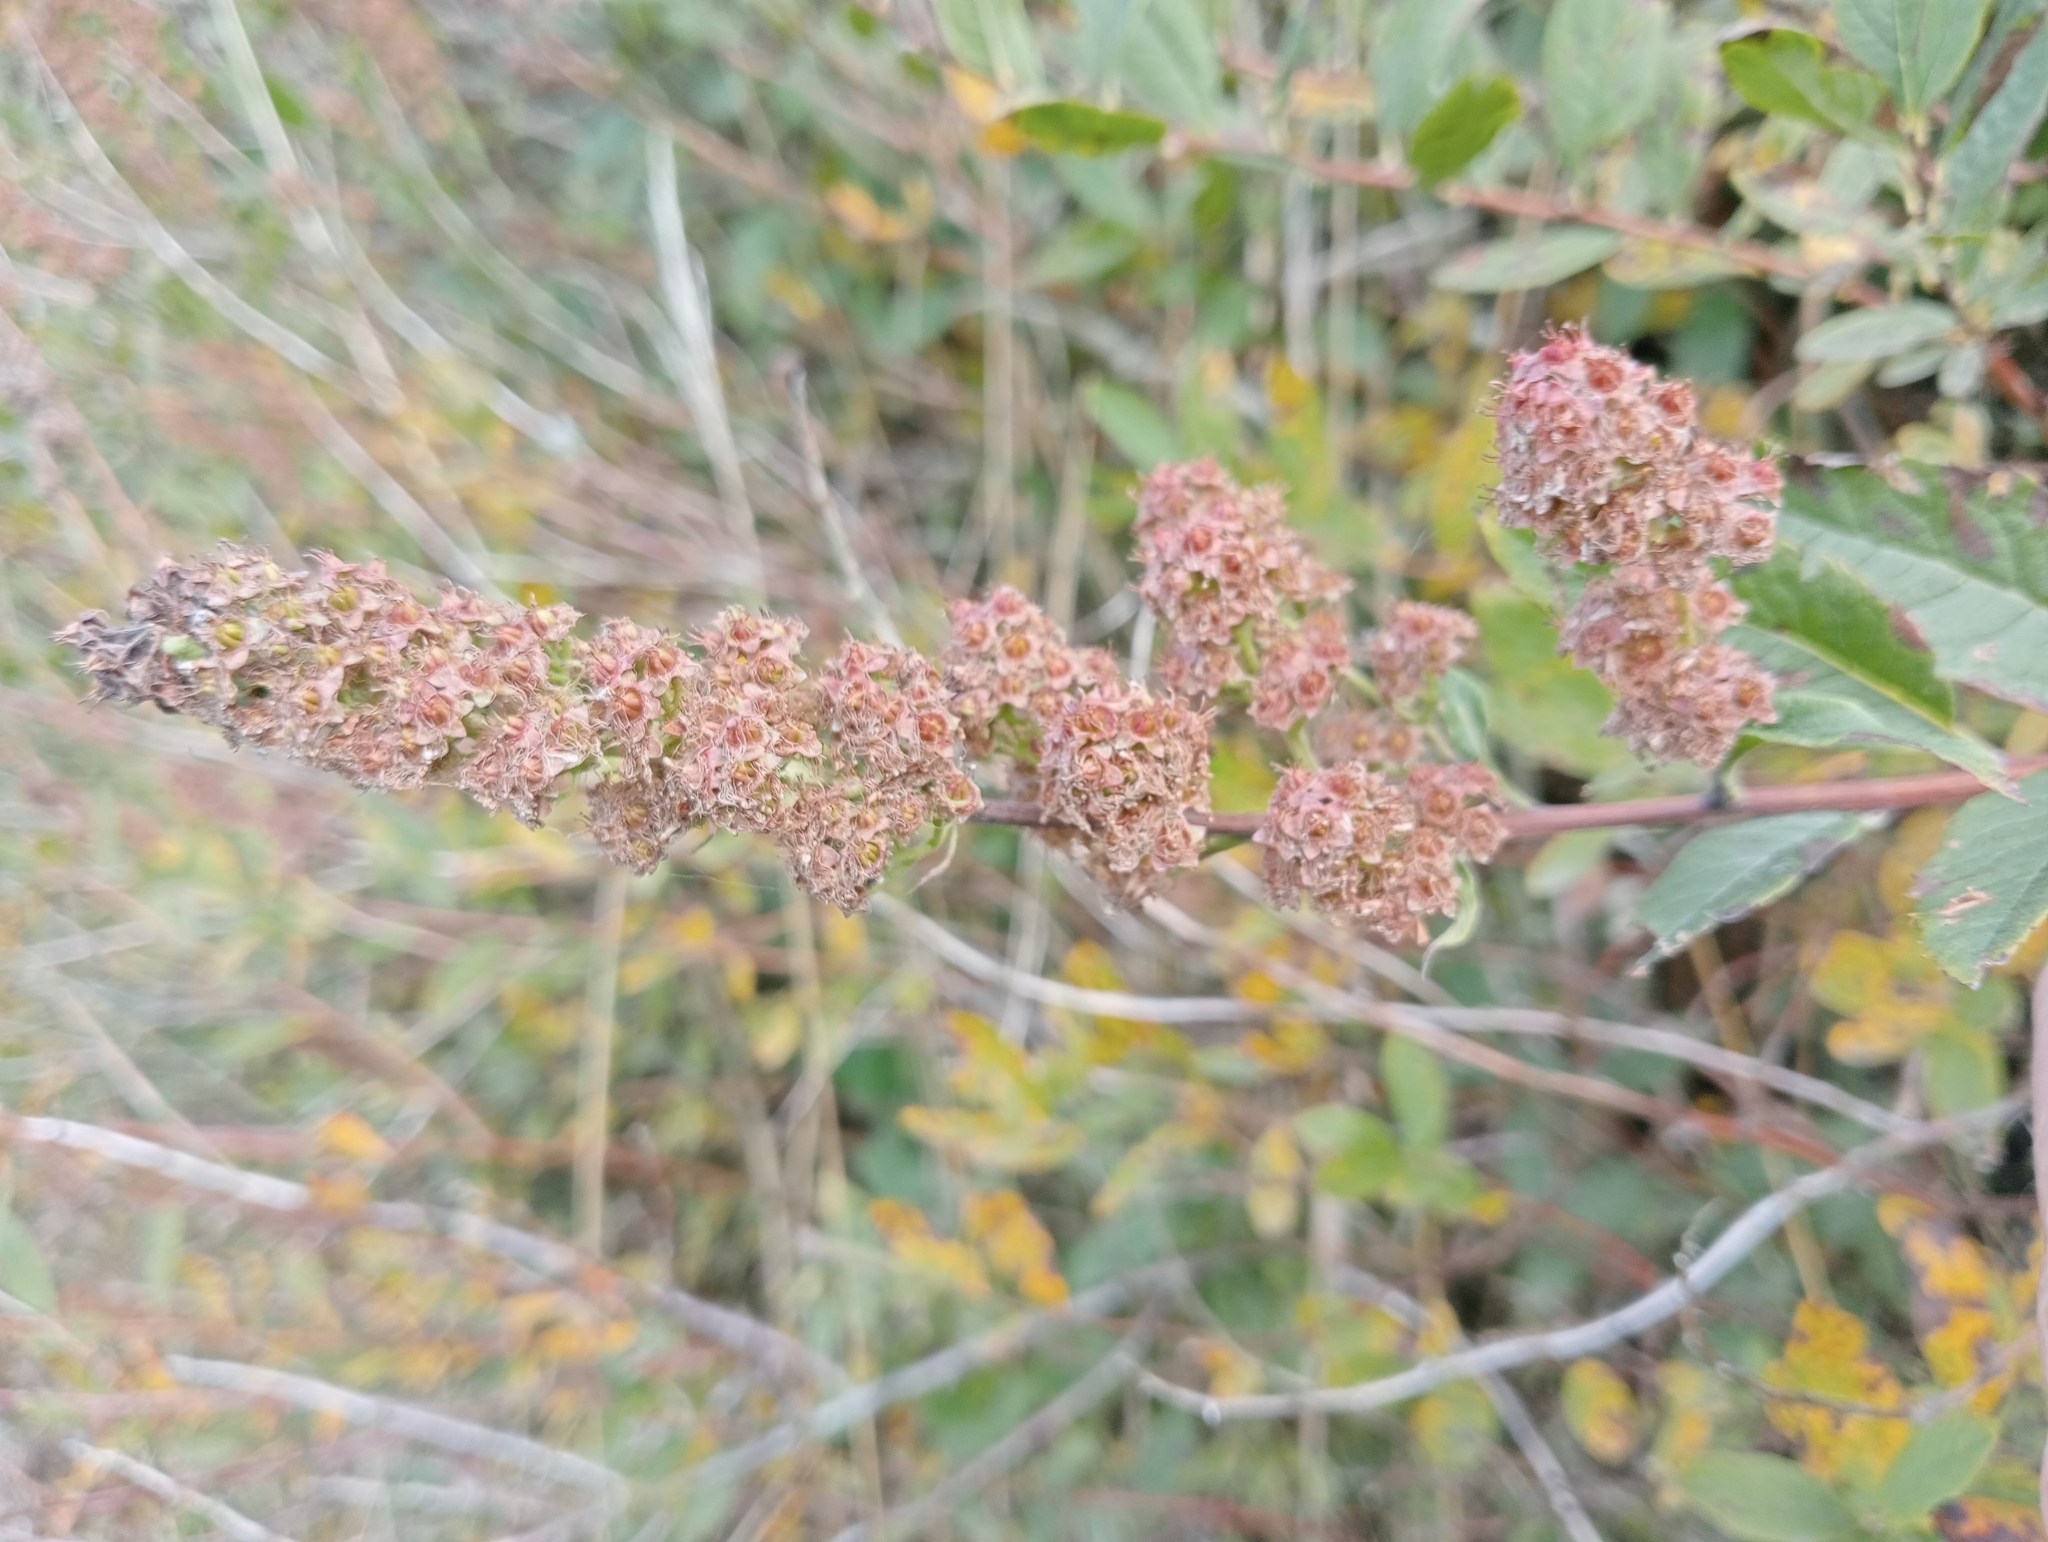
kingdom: Plantae
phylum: Tracheophyta
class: Magnoliopsida
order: Rosales
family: Rosaceae
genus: Spiraea
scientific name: Spiraea douglasii
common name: Steeplebush
